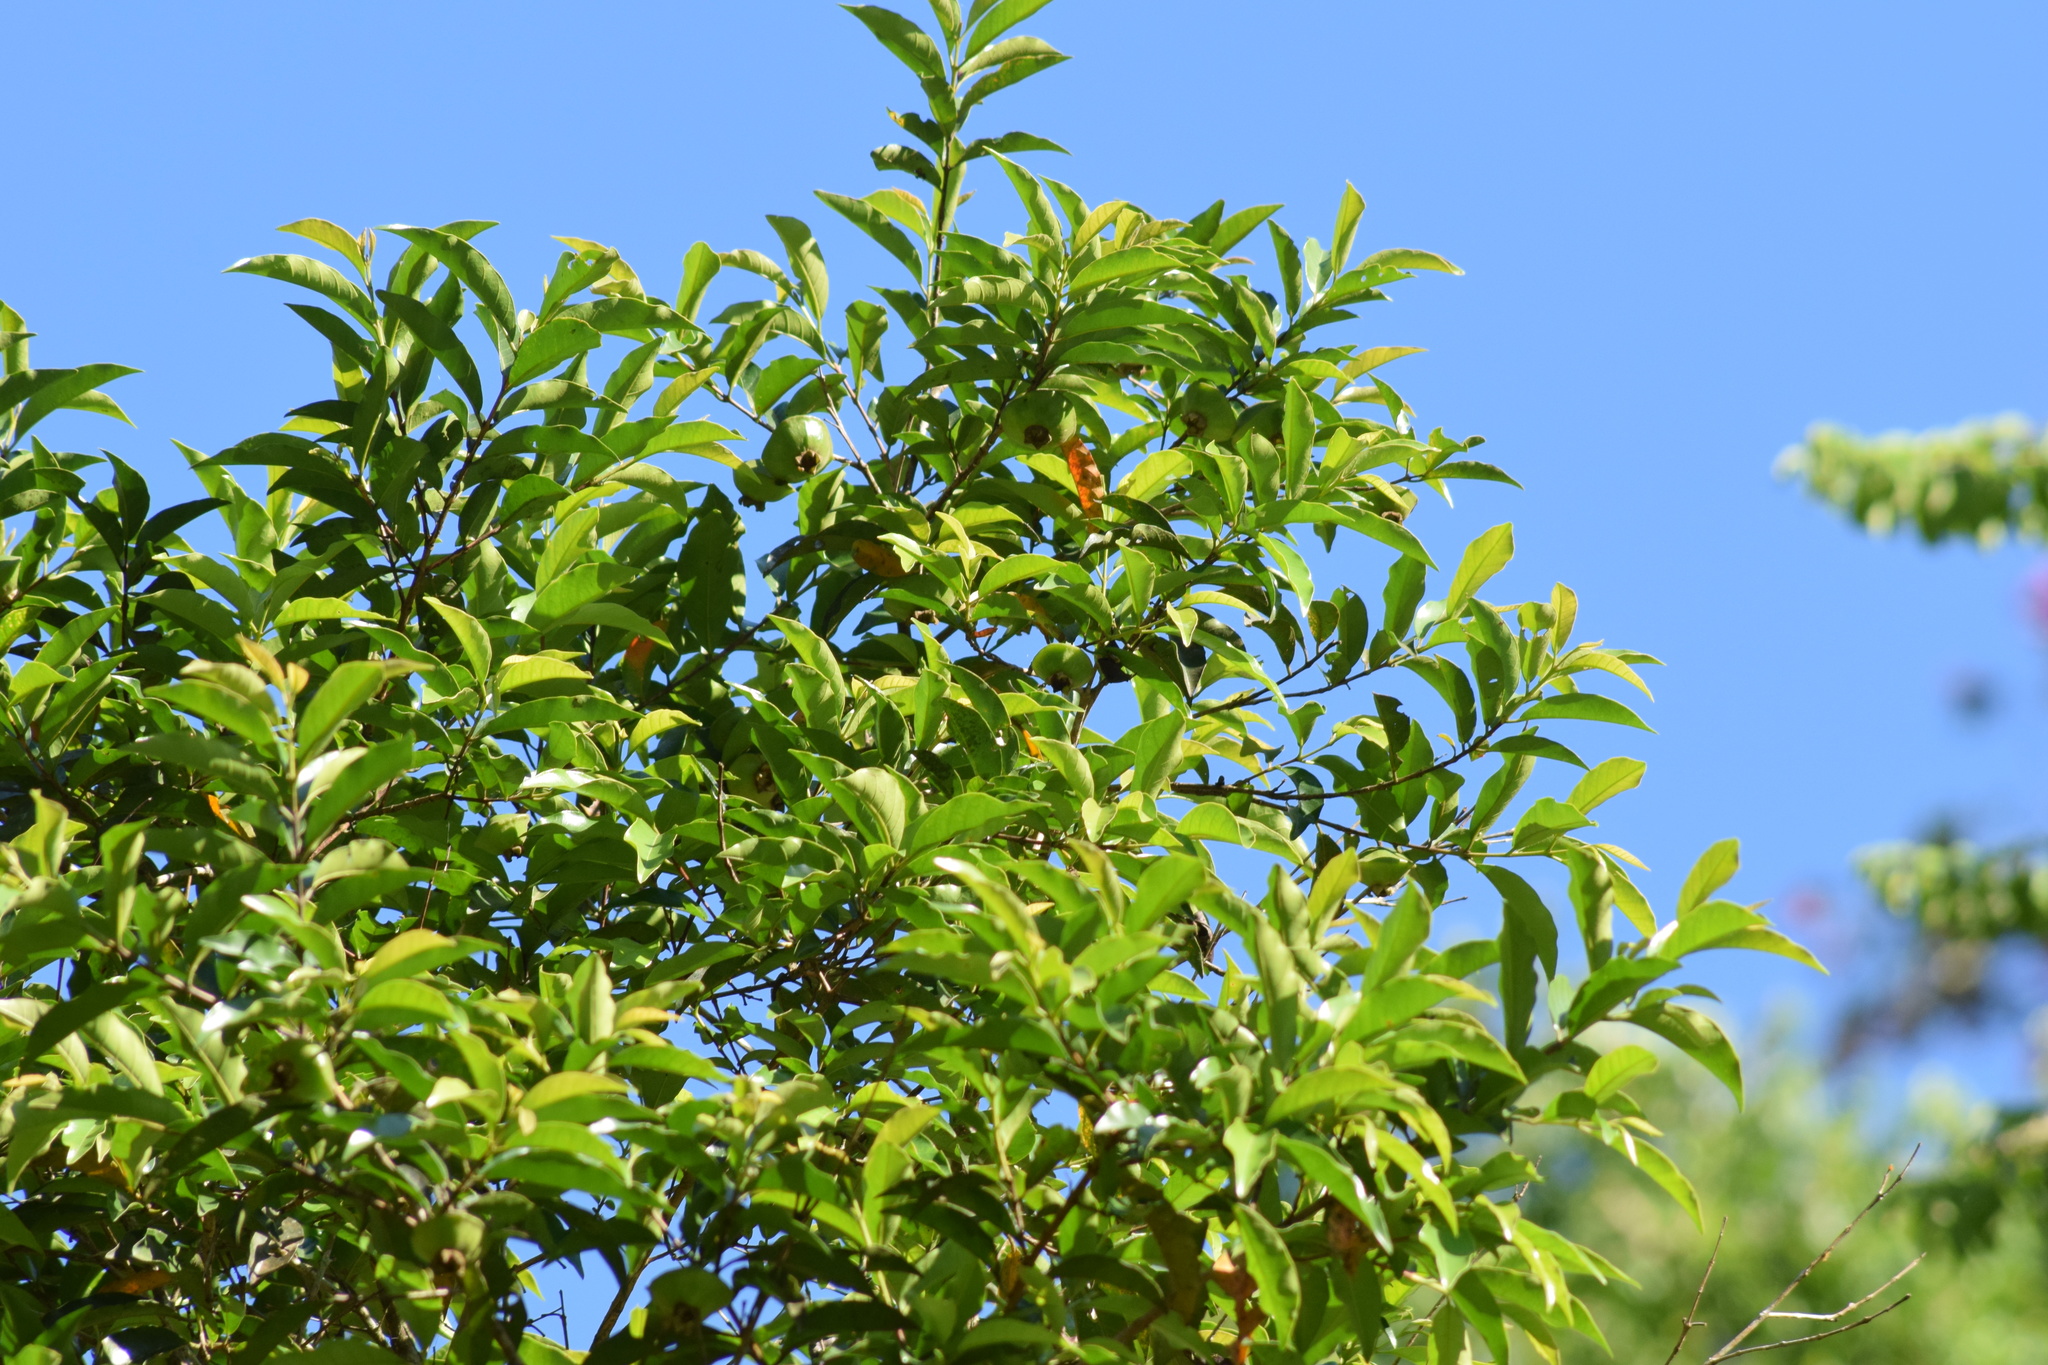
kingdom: Plantae
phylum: Tracheophyta
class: Magnoliopsida
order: Myrtales
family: Myrtaceae
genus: Campomanesia
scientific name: Campomanesia phaea
